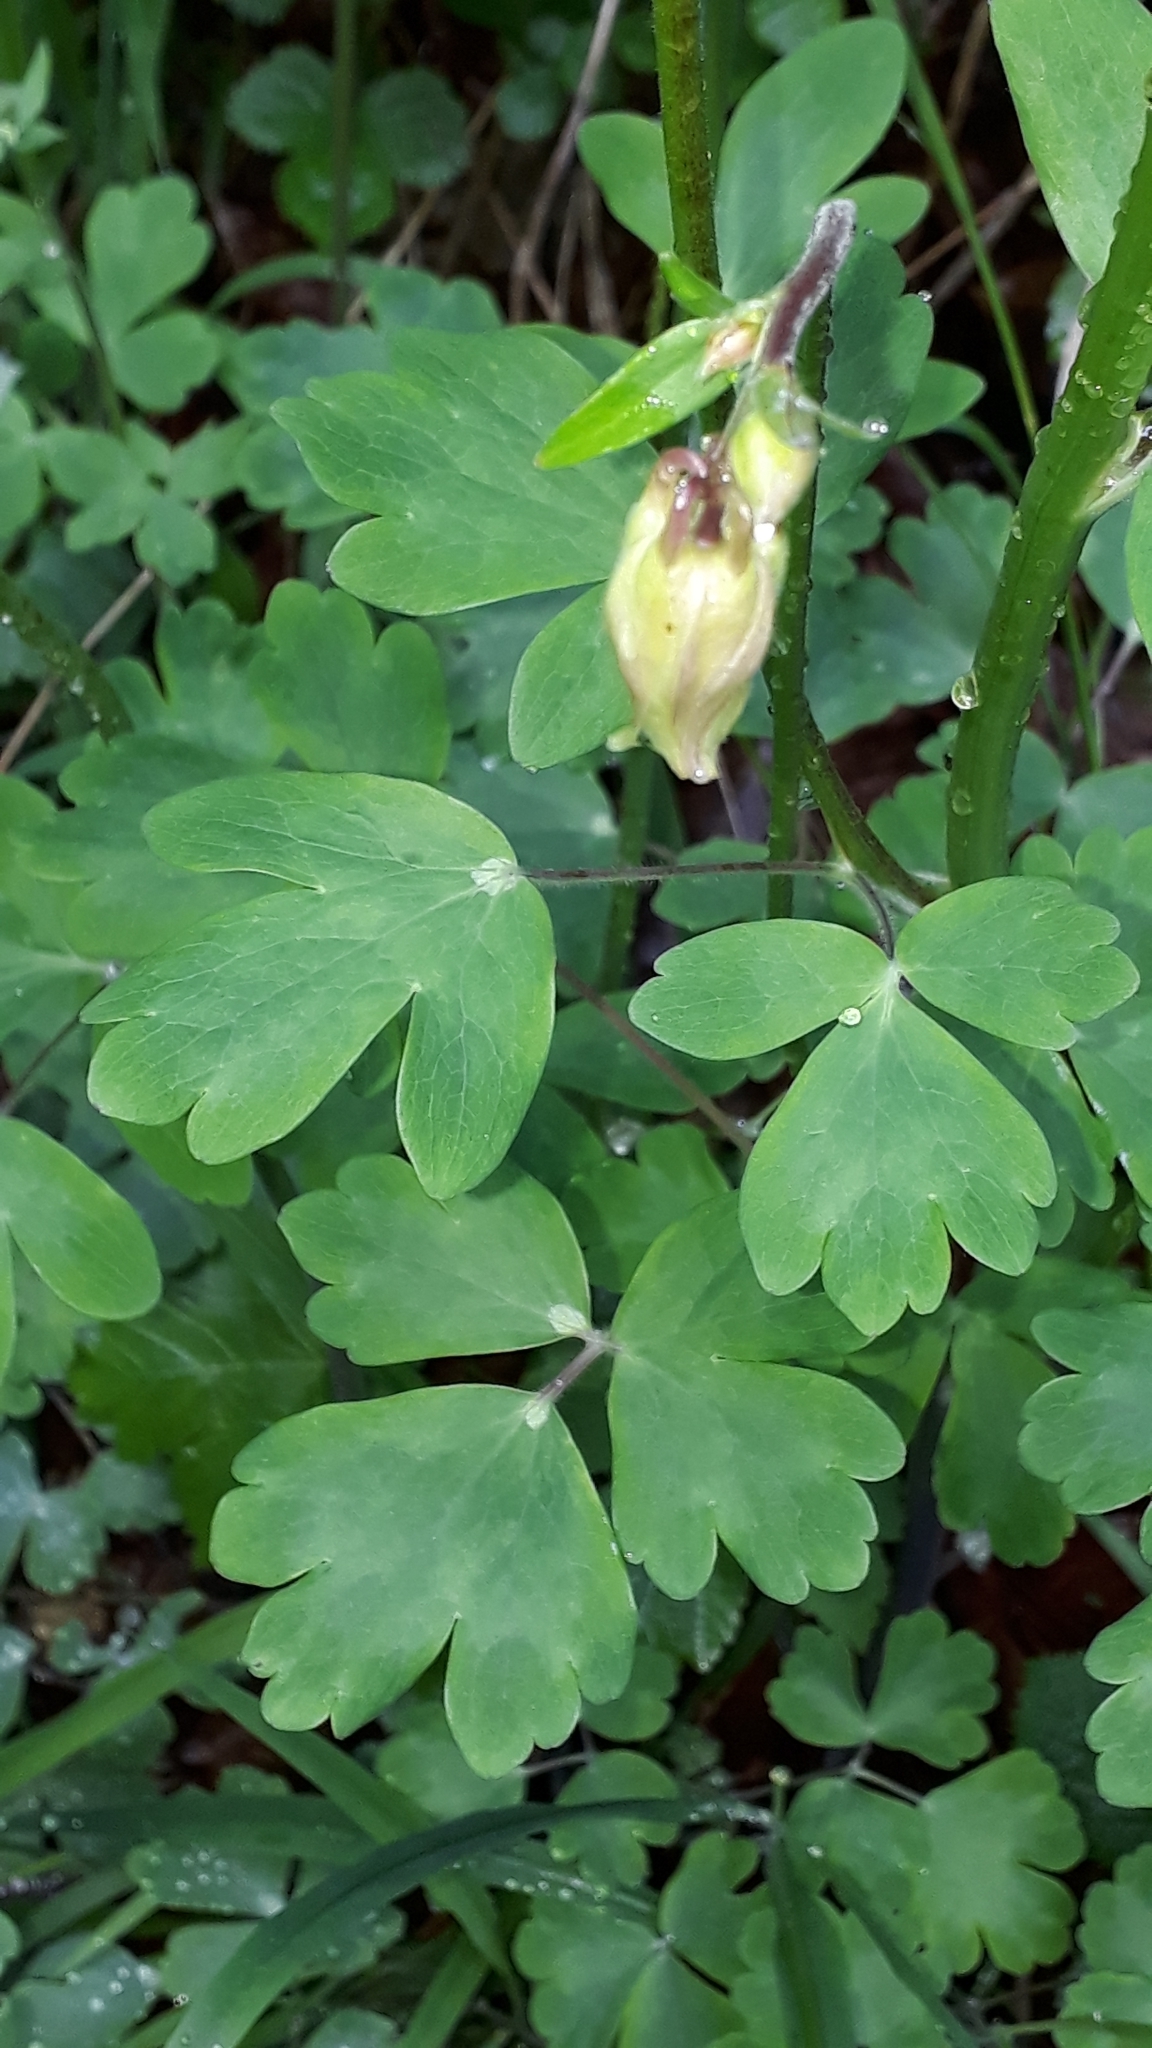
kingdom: Plantae
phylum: Tracheophyta
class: Magnoliopsida
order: Ranunculales
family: Ranunculaceae
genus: Aquilegia
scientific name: Aquilegia vulgaris
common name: Columbine
